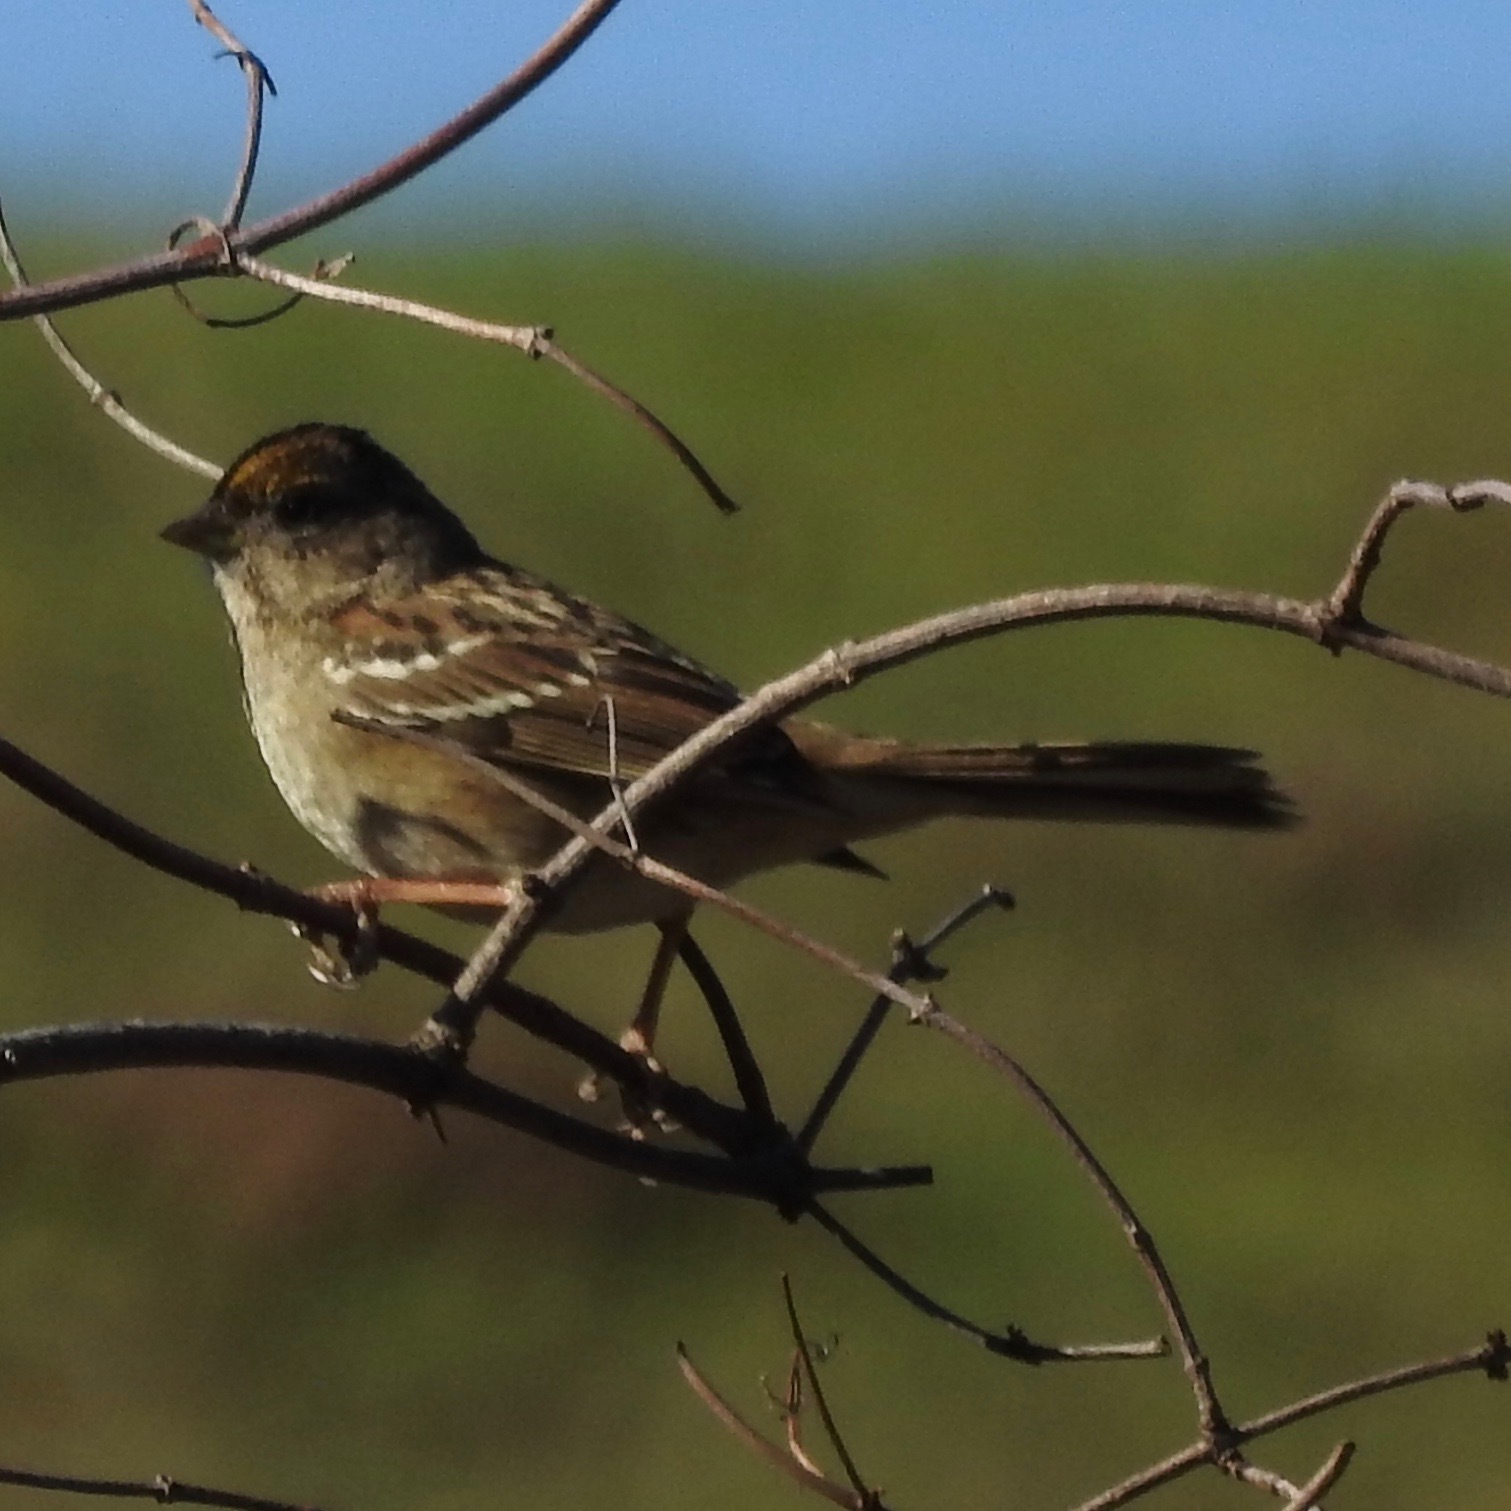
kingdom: Animalia
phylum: Chordata
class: Aves
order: Passeriformes
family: Passerellidae
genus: Zonotrichia
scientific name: Zonotrichia atricapilla
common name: Golden-crowned sparrow
